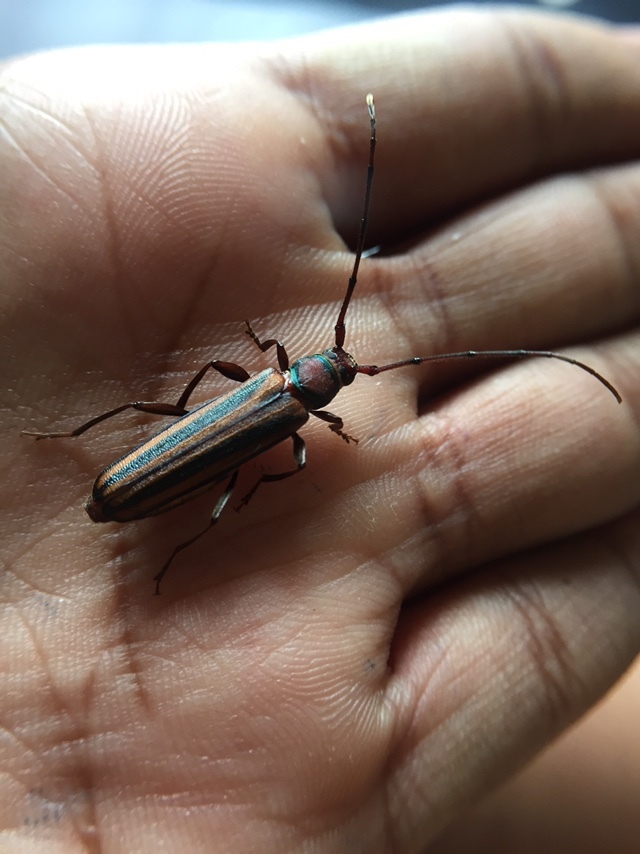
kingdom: Animalia
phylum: Arthropoda
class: Insecta
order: Coleoptera
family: Cerambycidae
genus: Xystrocera
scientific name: Xystrocera globosa
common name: Peach-tree longhorn
